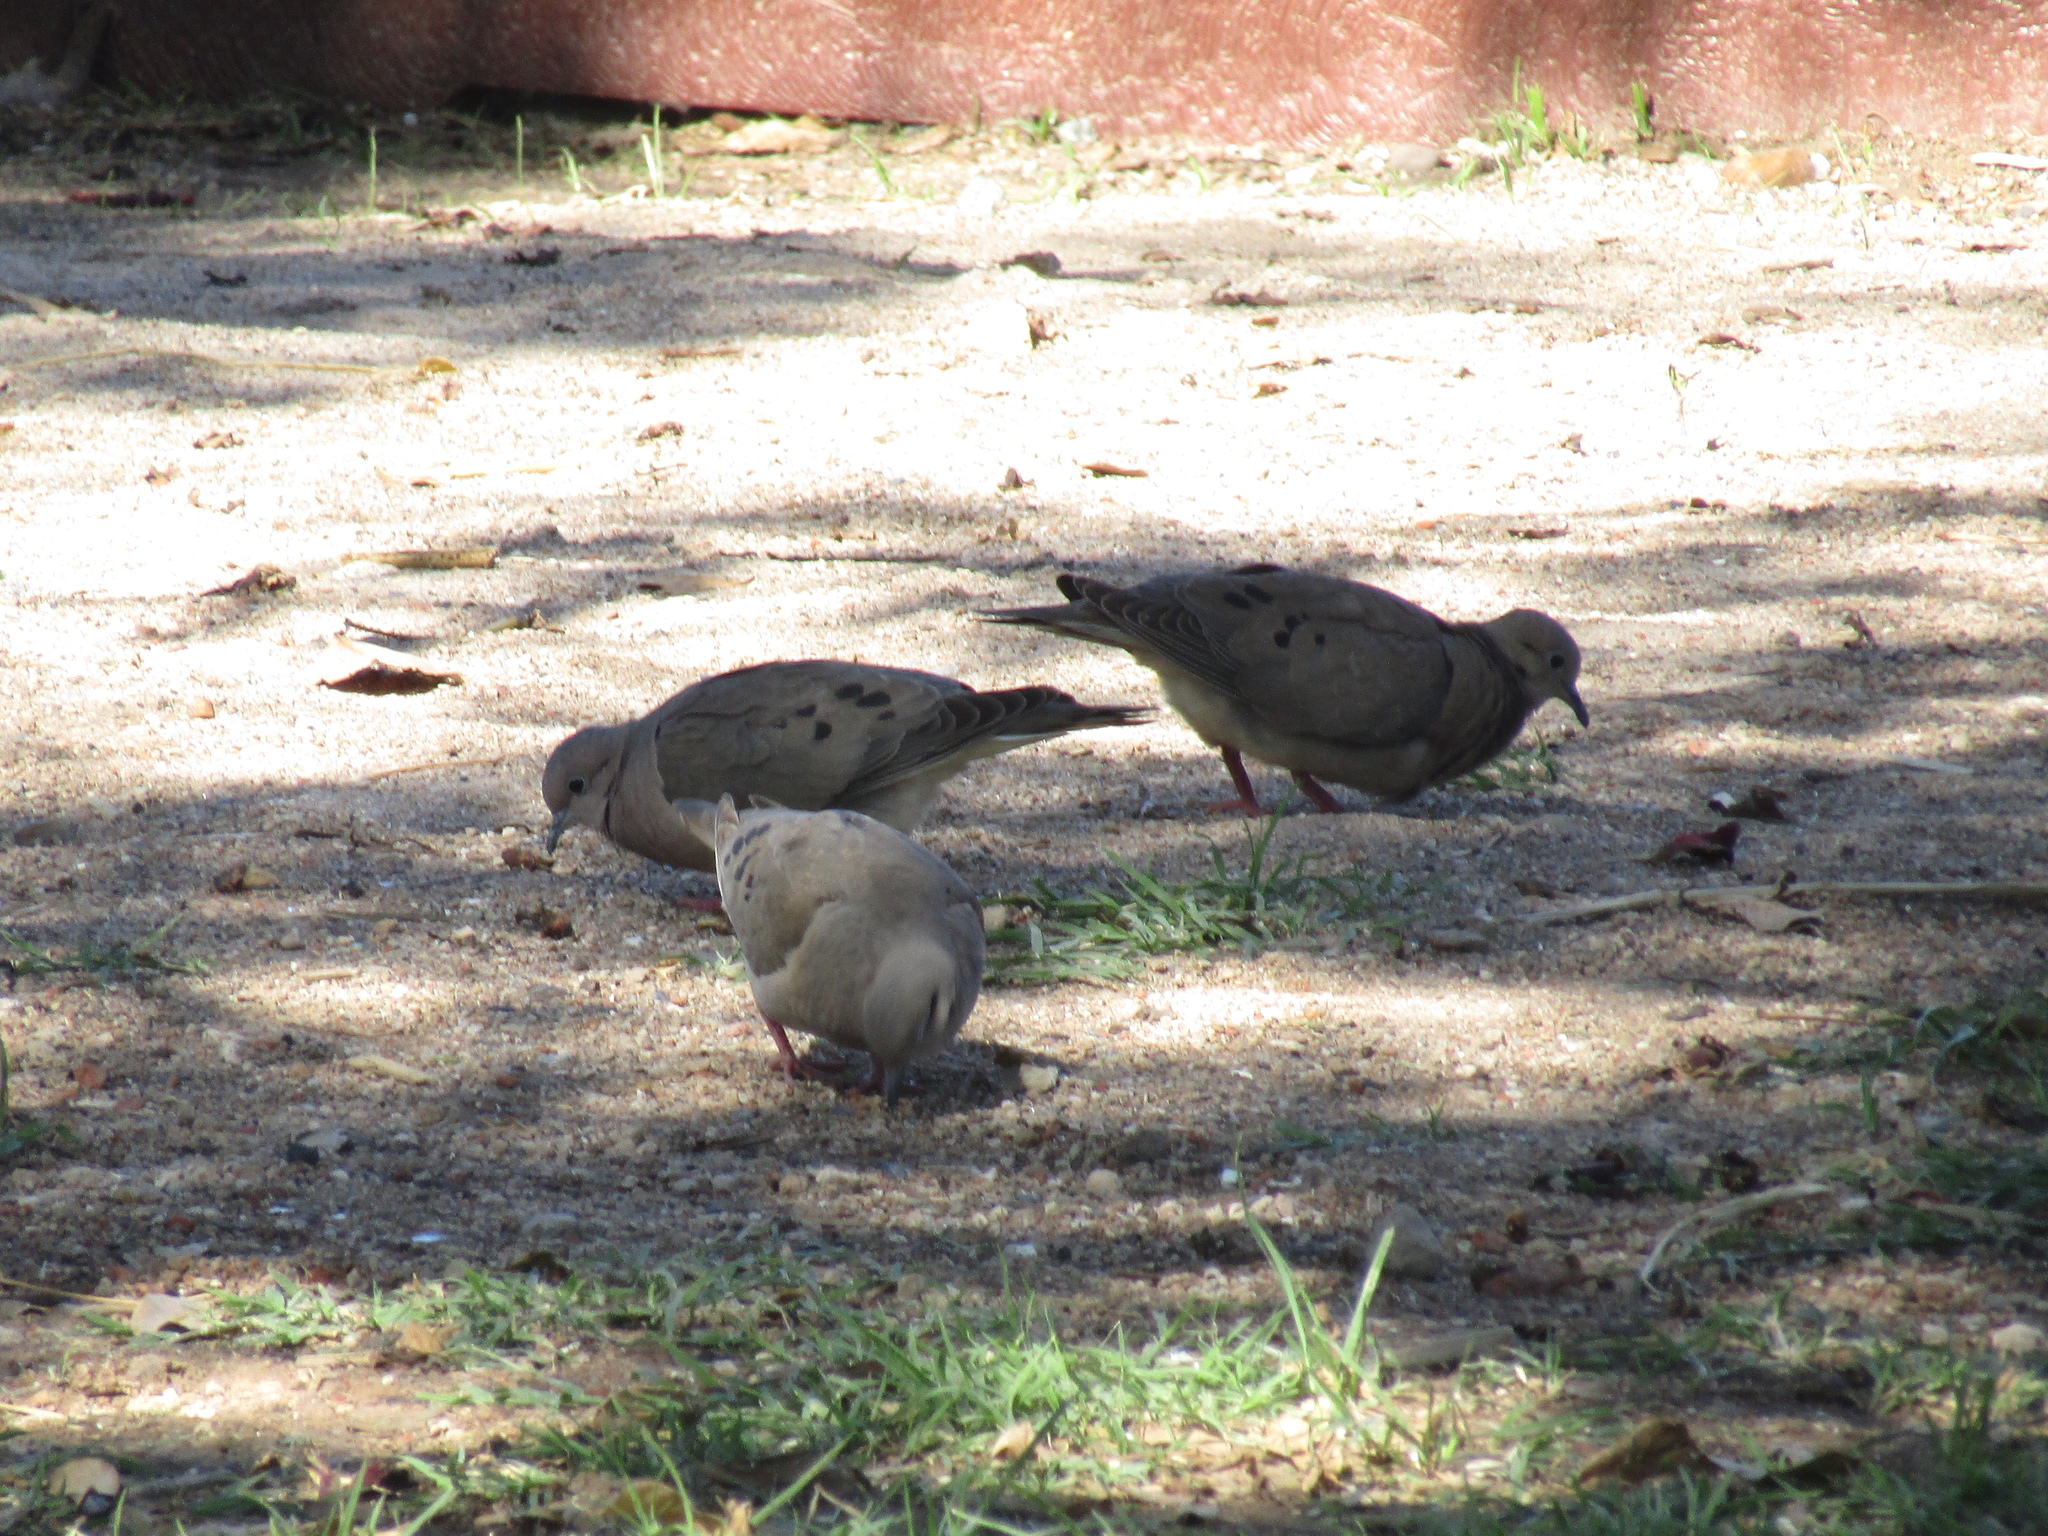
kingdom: Animalia
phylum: Chordata
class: Aves
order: Columbiformes
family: Columbidae
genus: Zenaida
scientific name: Zenaida auriculata
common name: Eared dove
